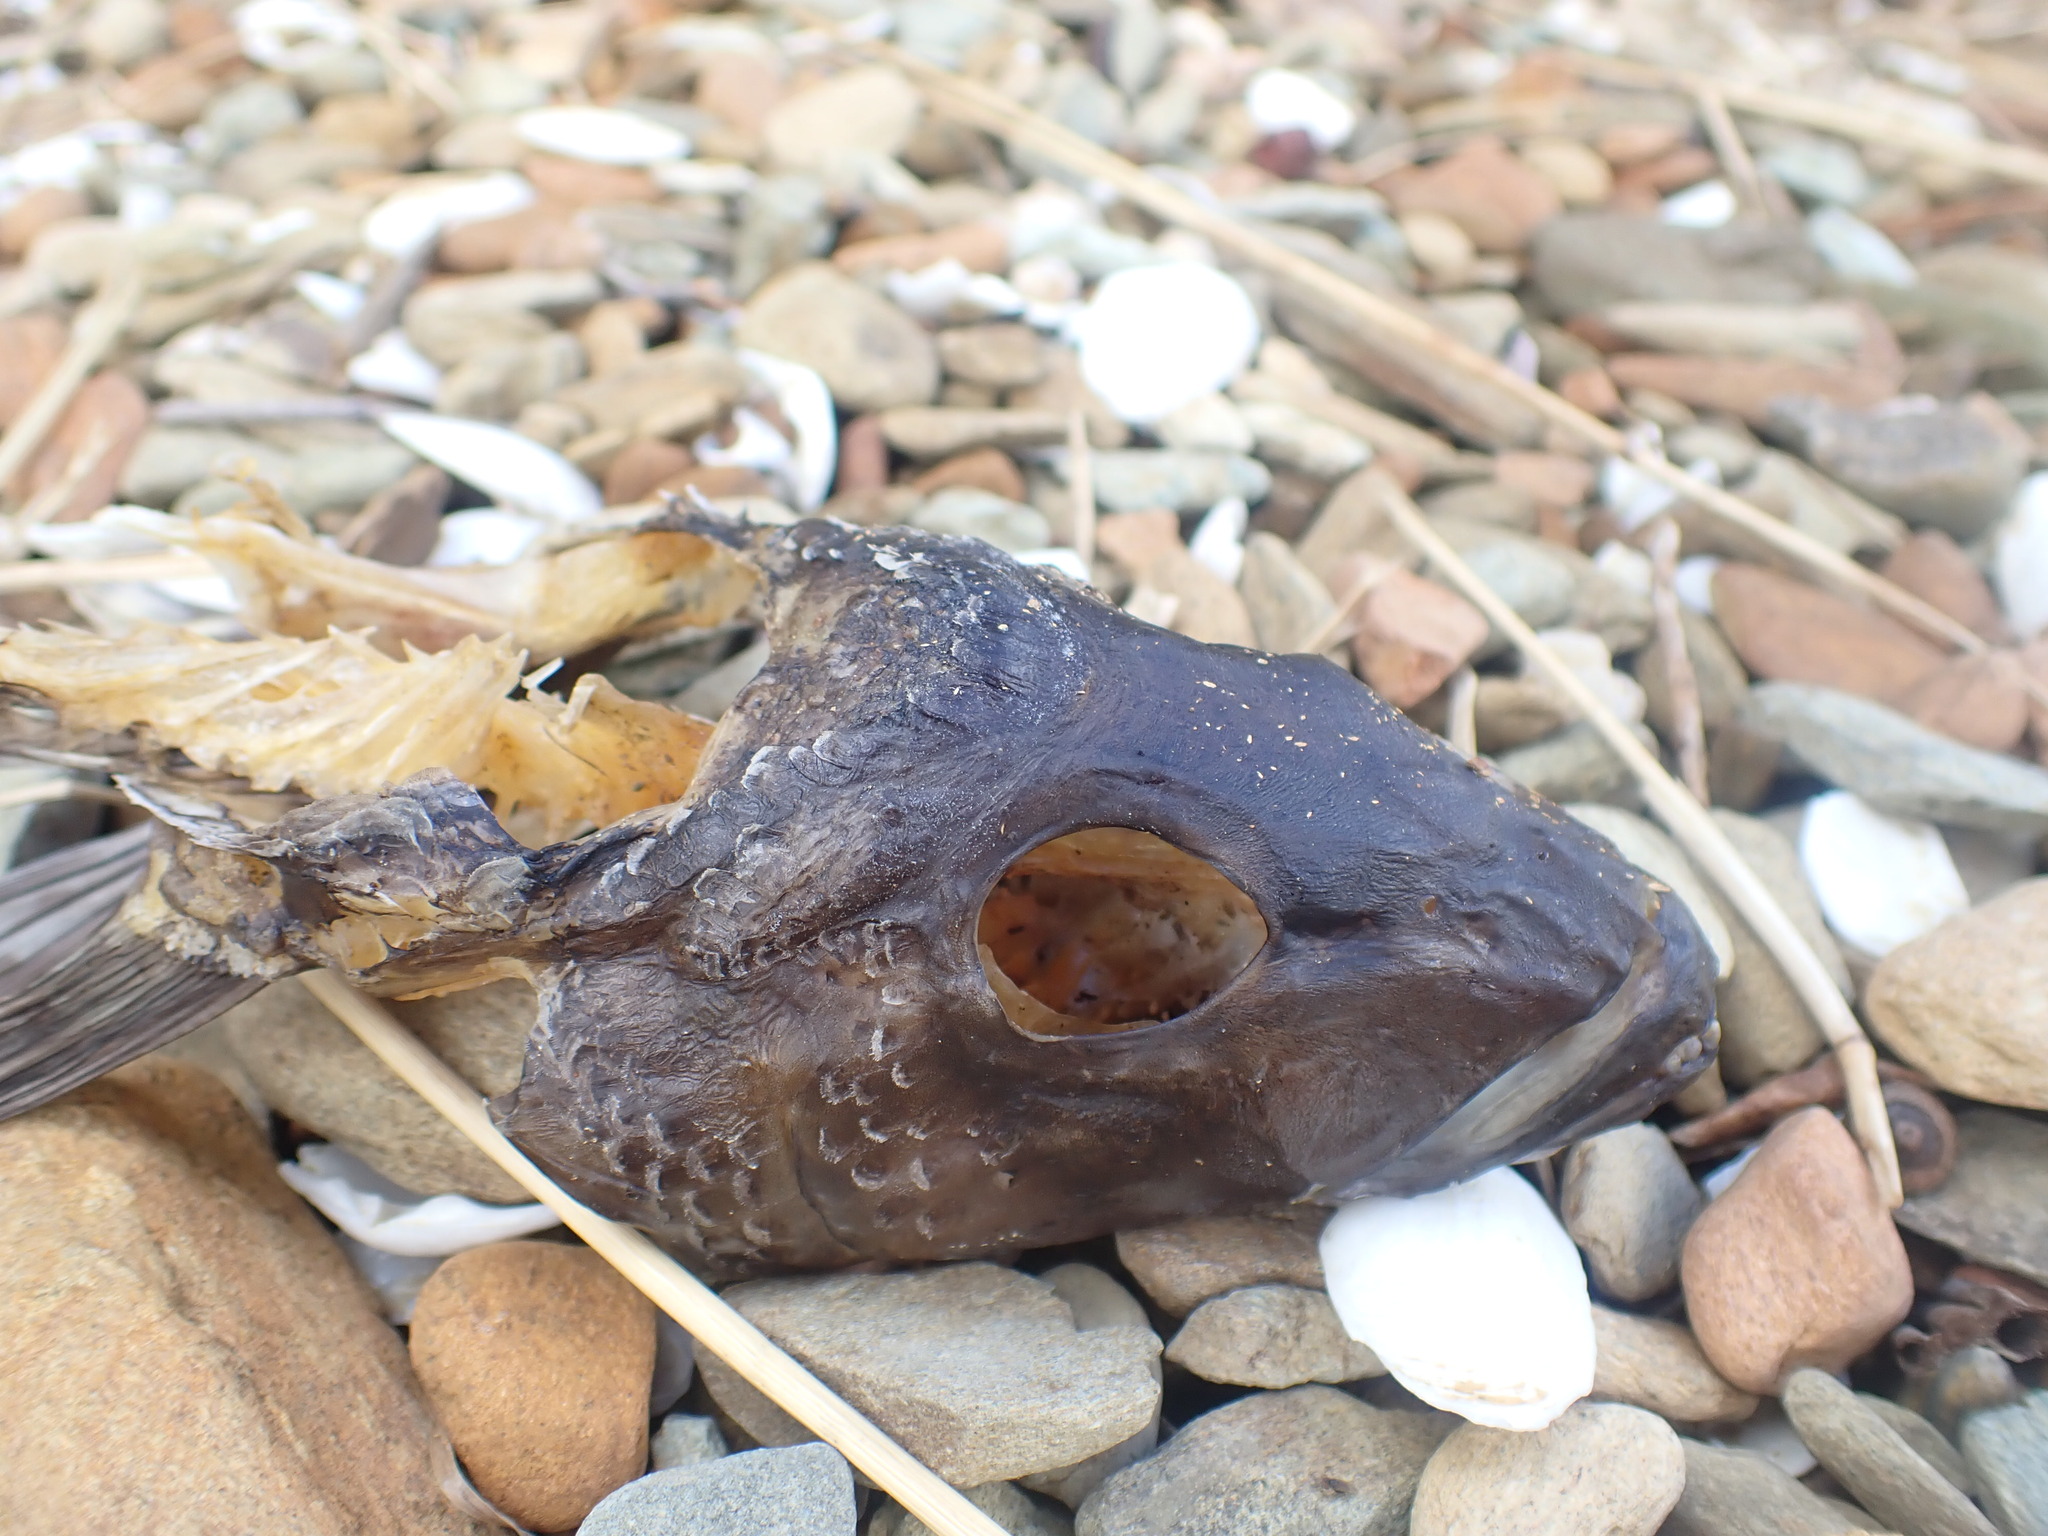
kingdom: Animalia
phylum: Chordata
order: Perciformes
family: Pinguipedidae
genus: Parapercis
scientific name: Parapercis colias
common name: Blue cod
